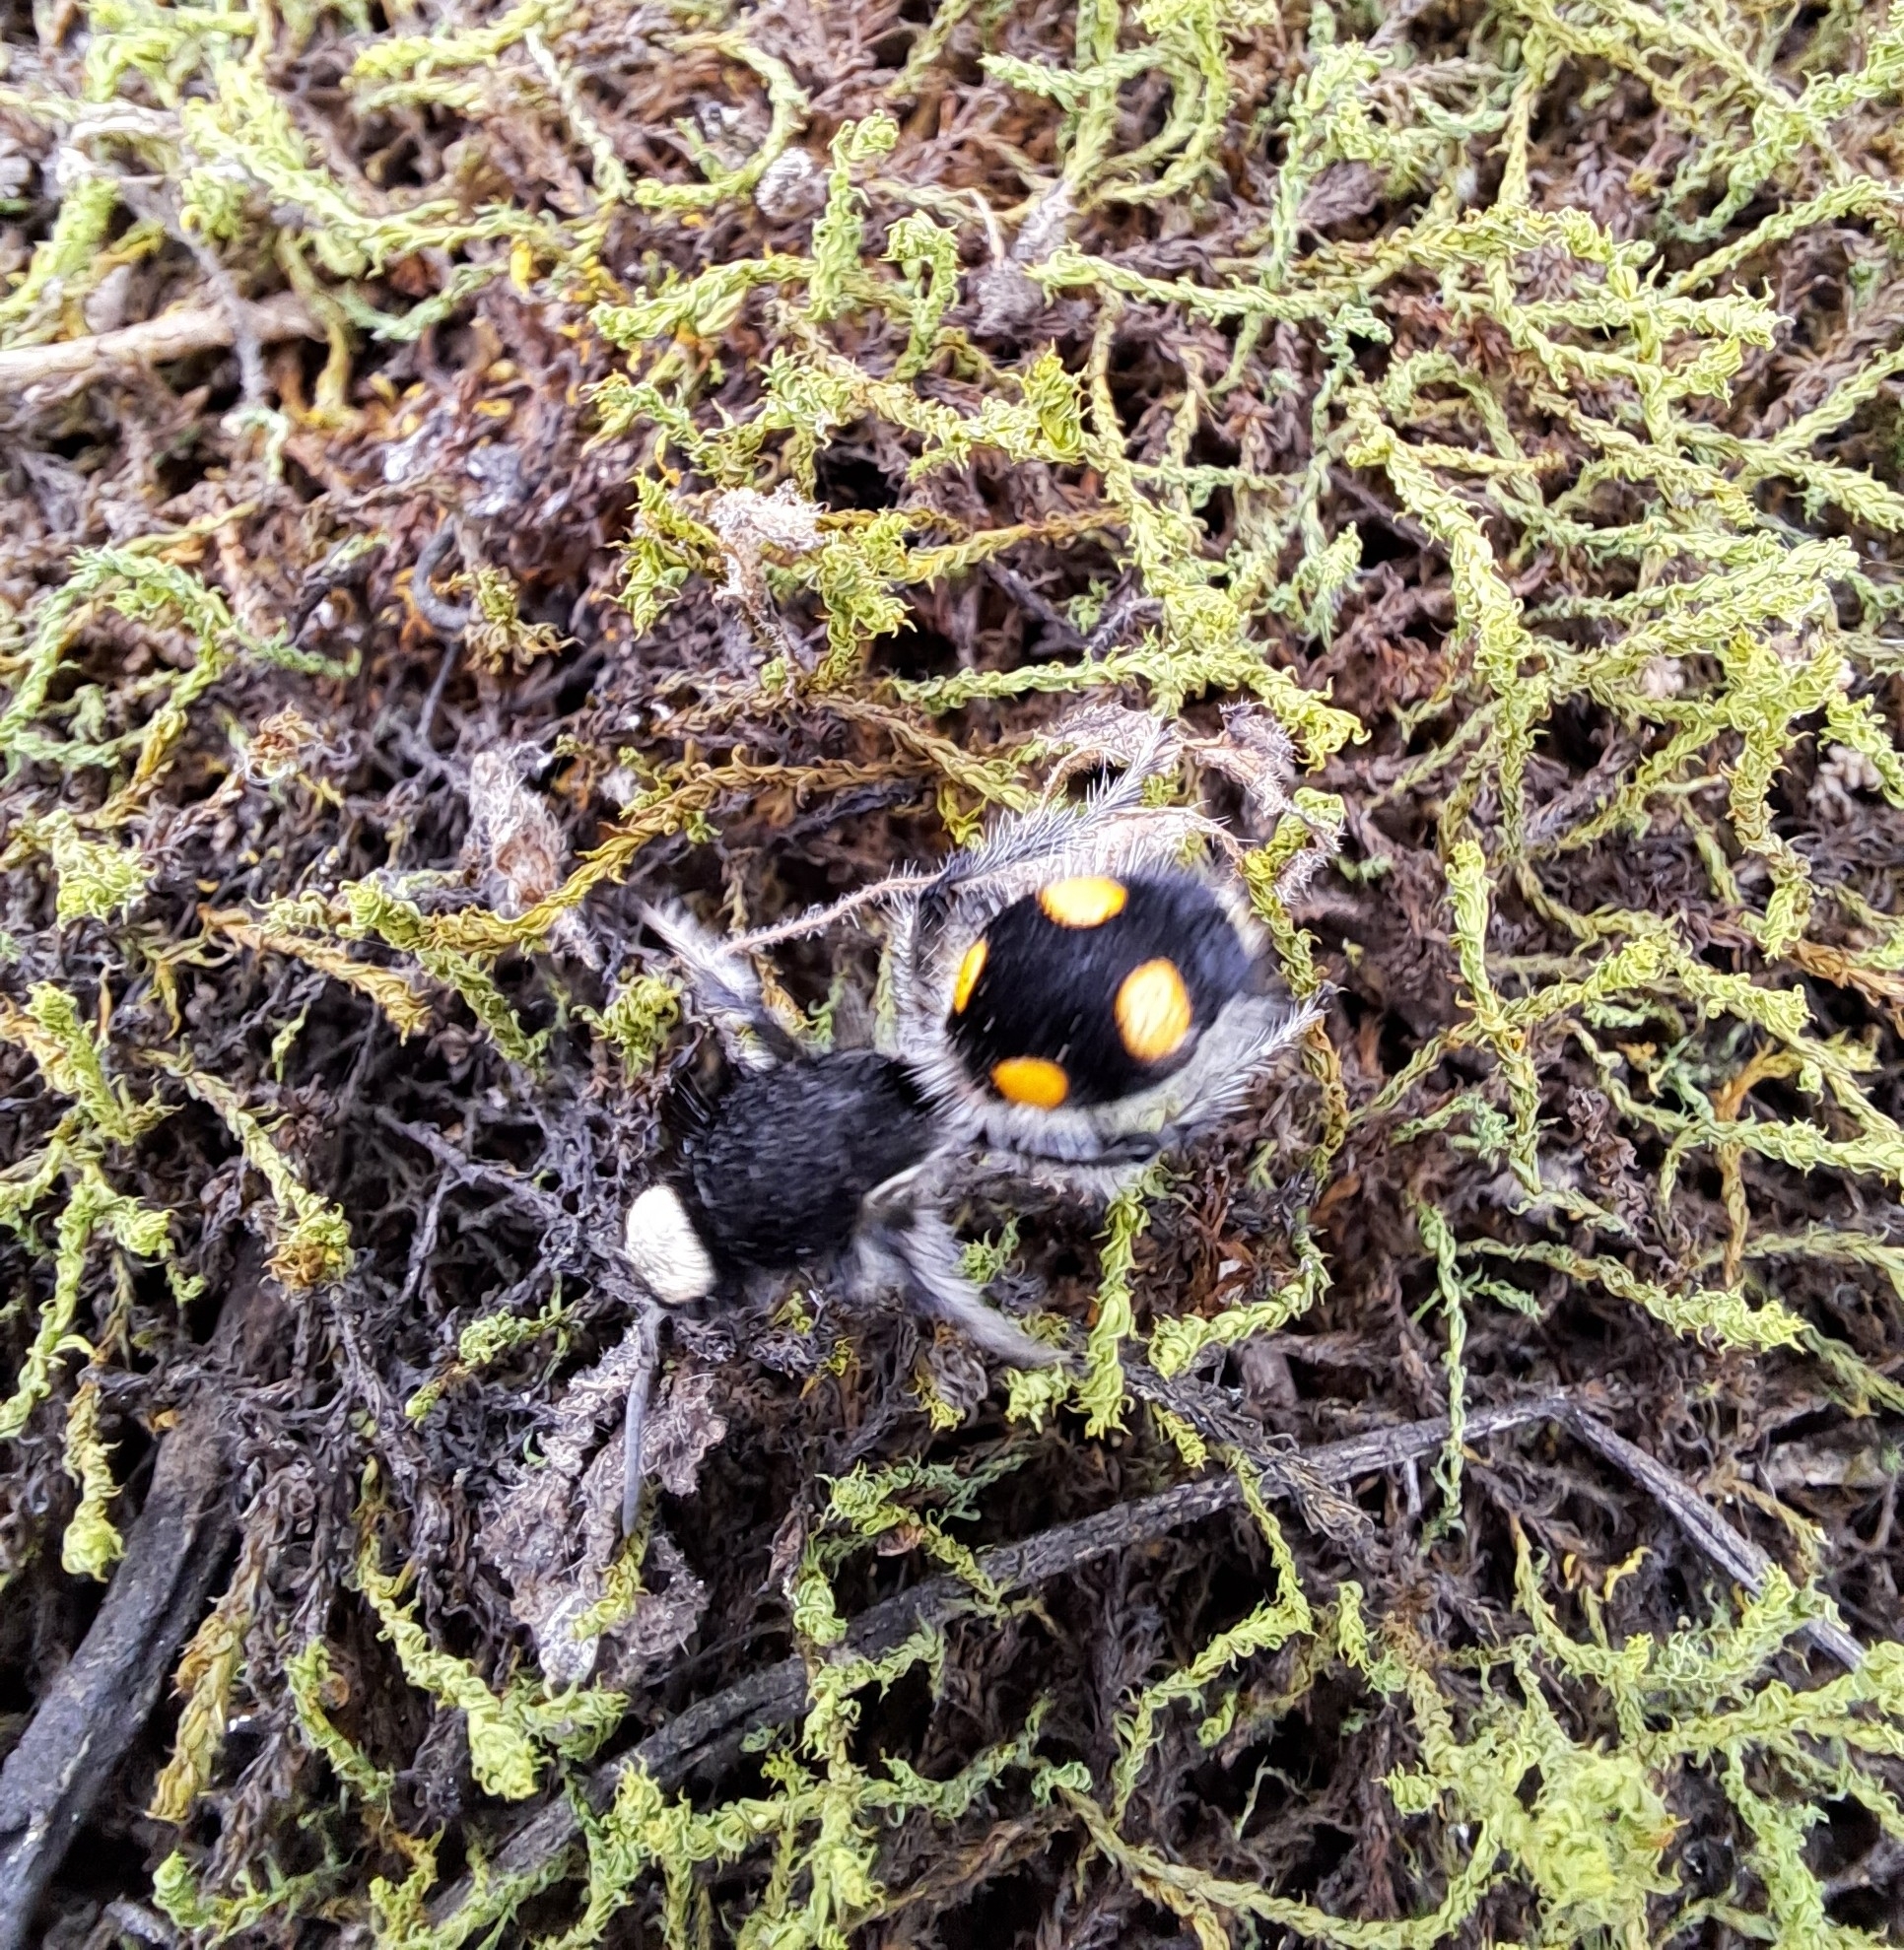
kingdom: Animalia
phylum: Arthropoda
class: Insecta
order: Hymenoptera
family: Mutillidae
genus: Traumatomutilla
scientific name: Traumatomutilla vitelligera
